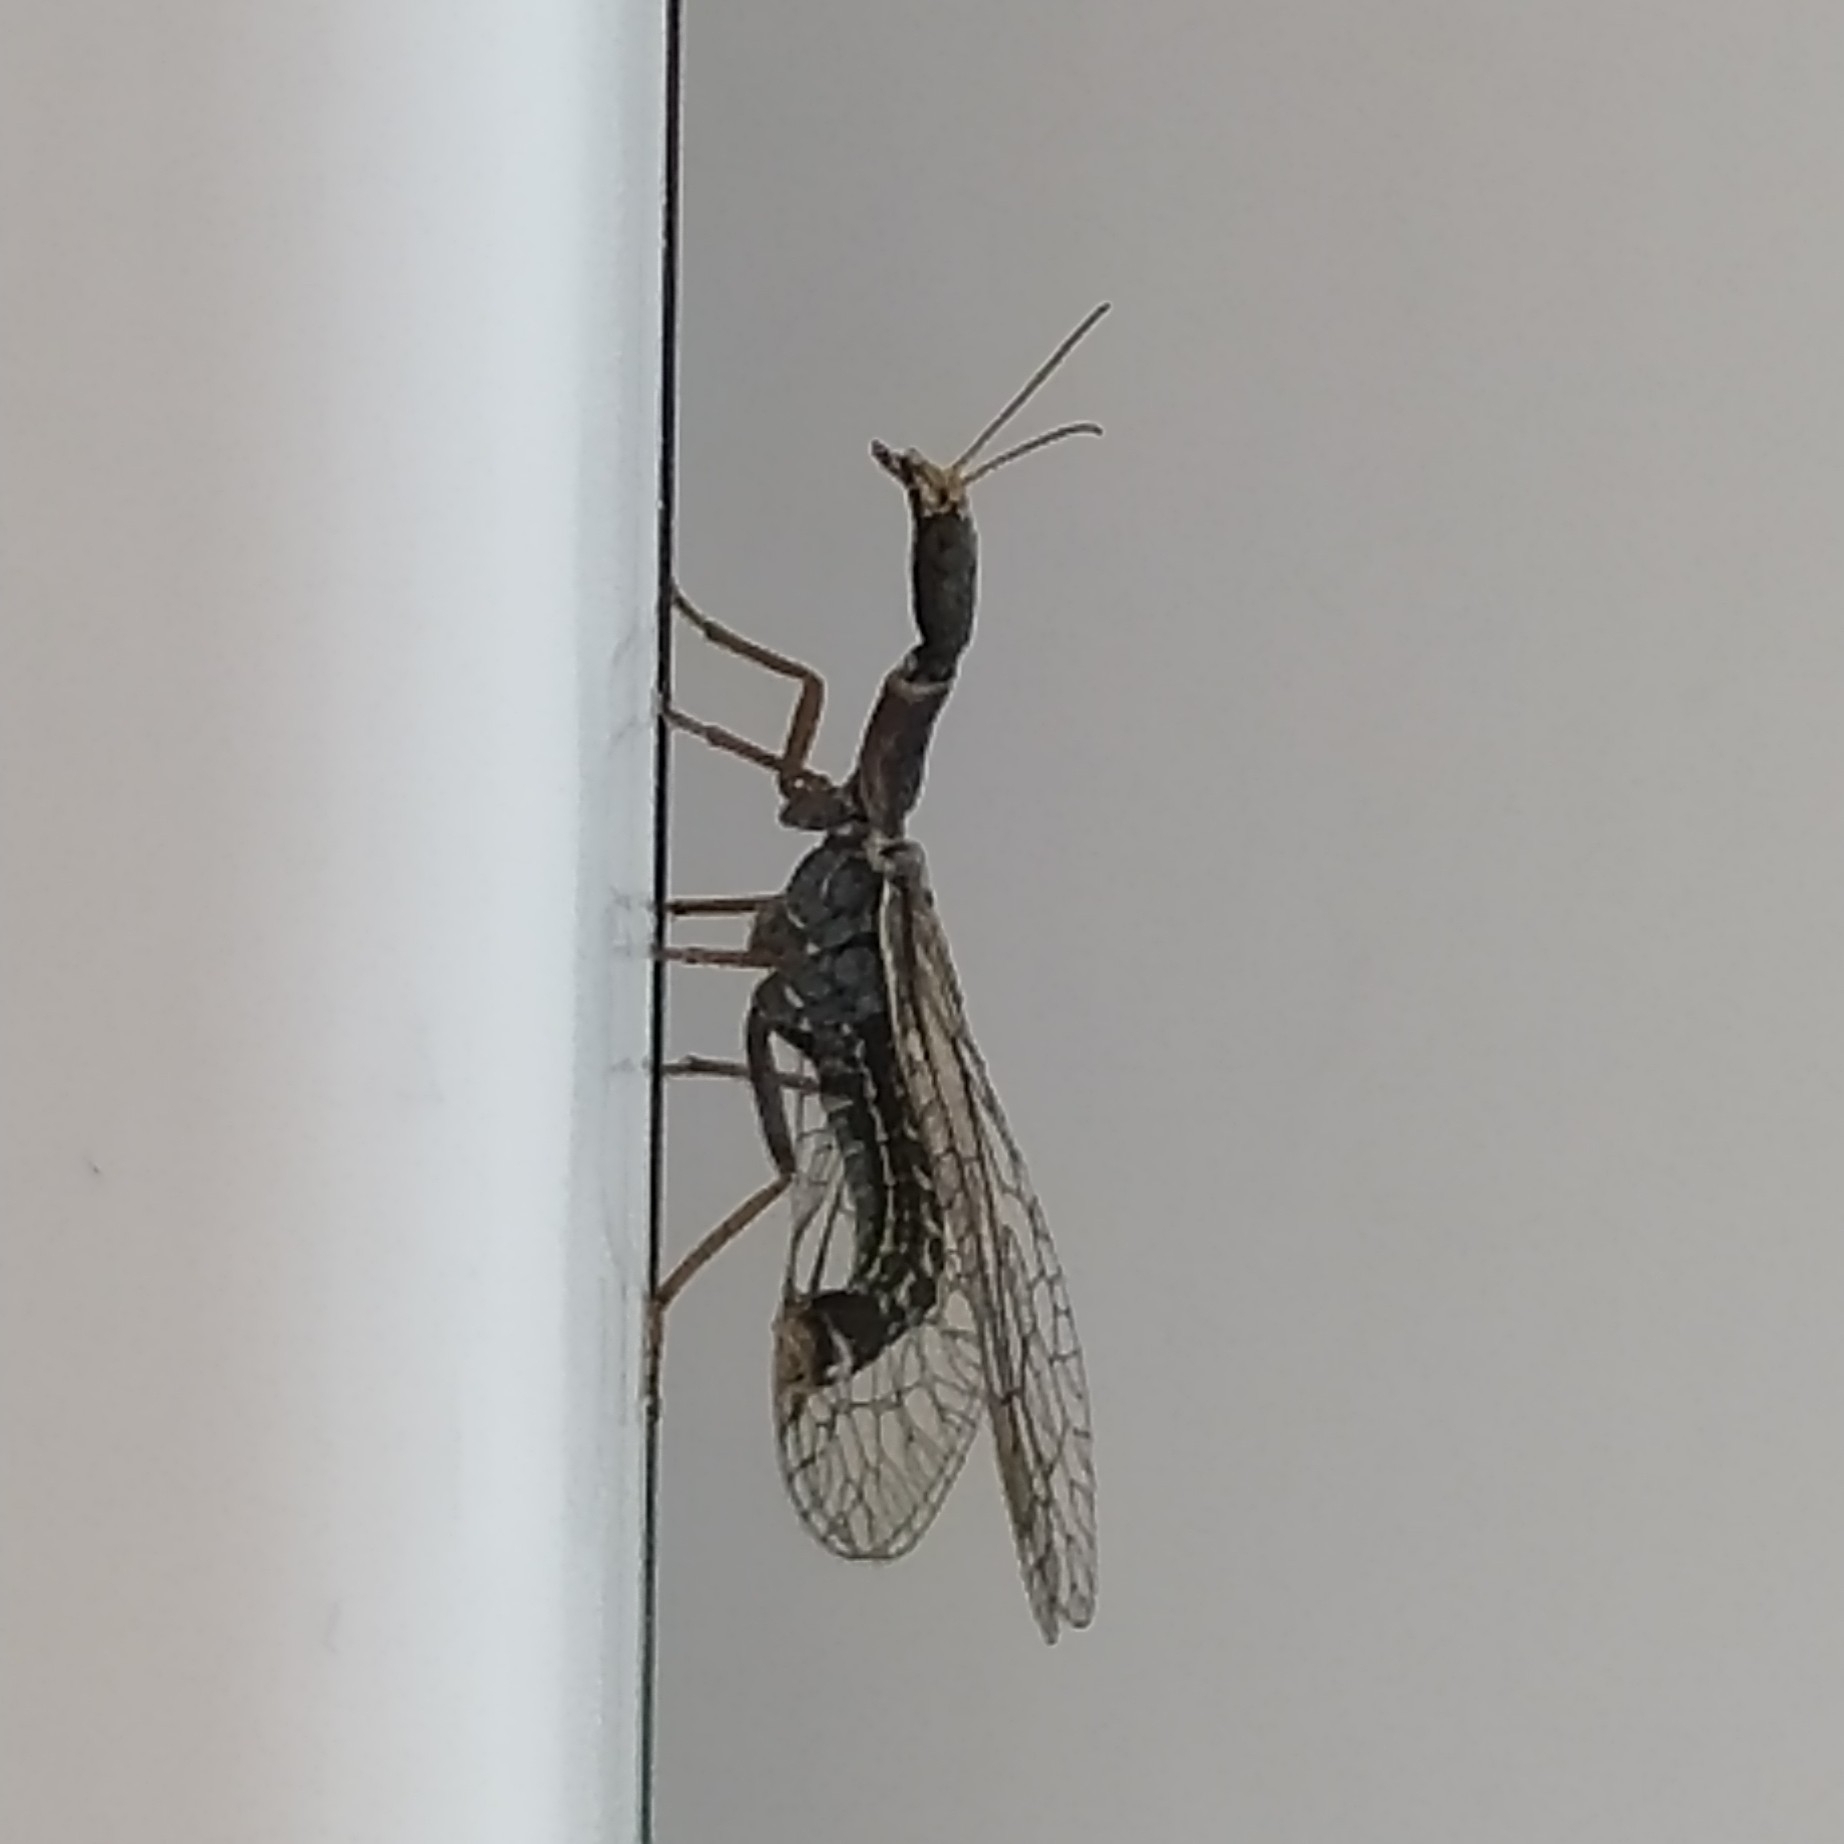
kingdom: Animalia
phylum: Arthropoda
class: Insecta
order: Raphidioptera
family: Raphidiidae
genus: Xanthostigma
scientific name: Xanthostigma xanthostigma
